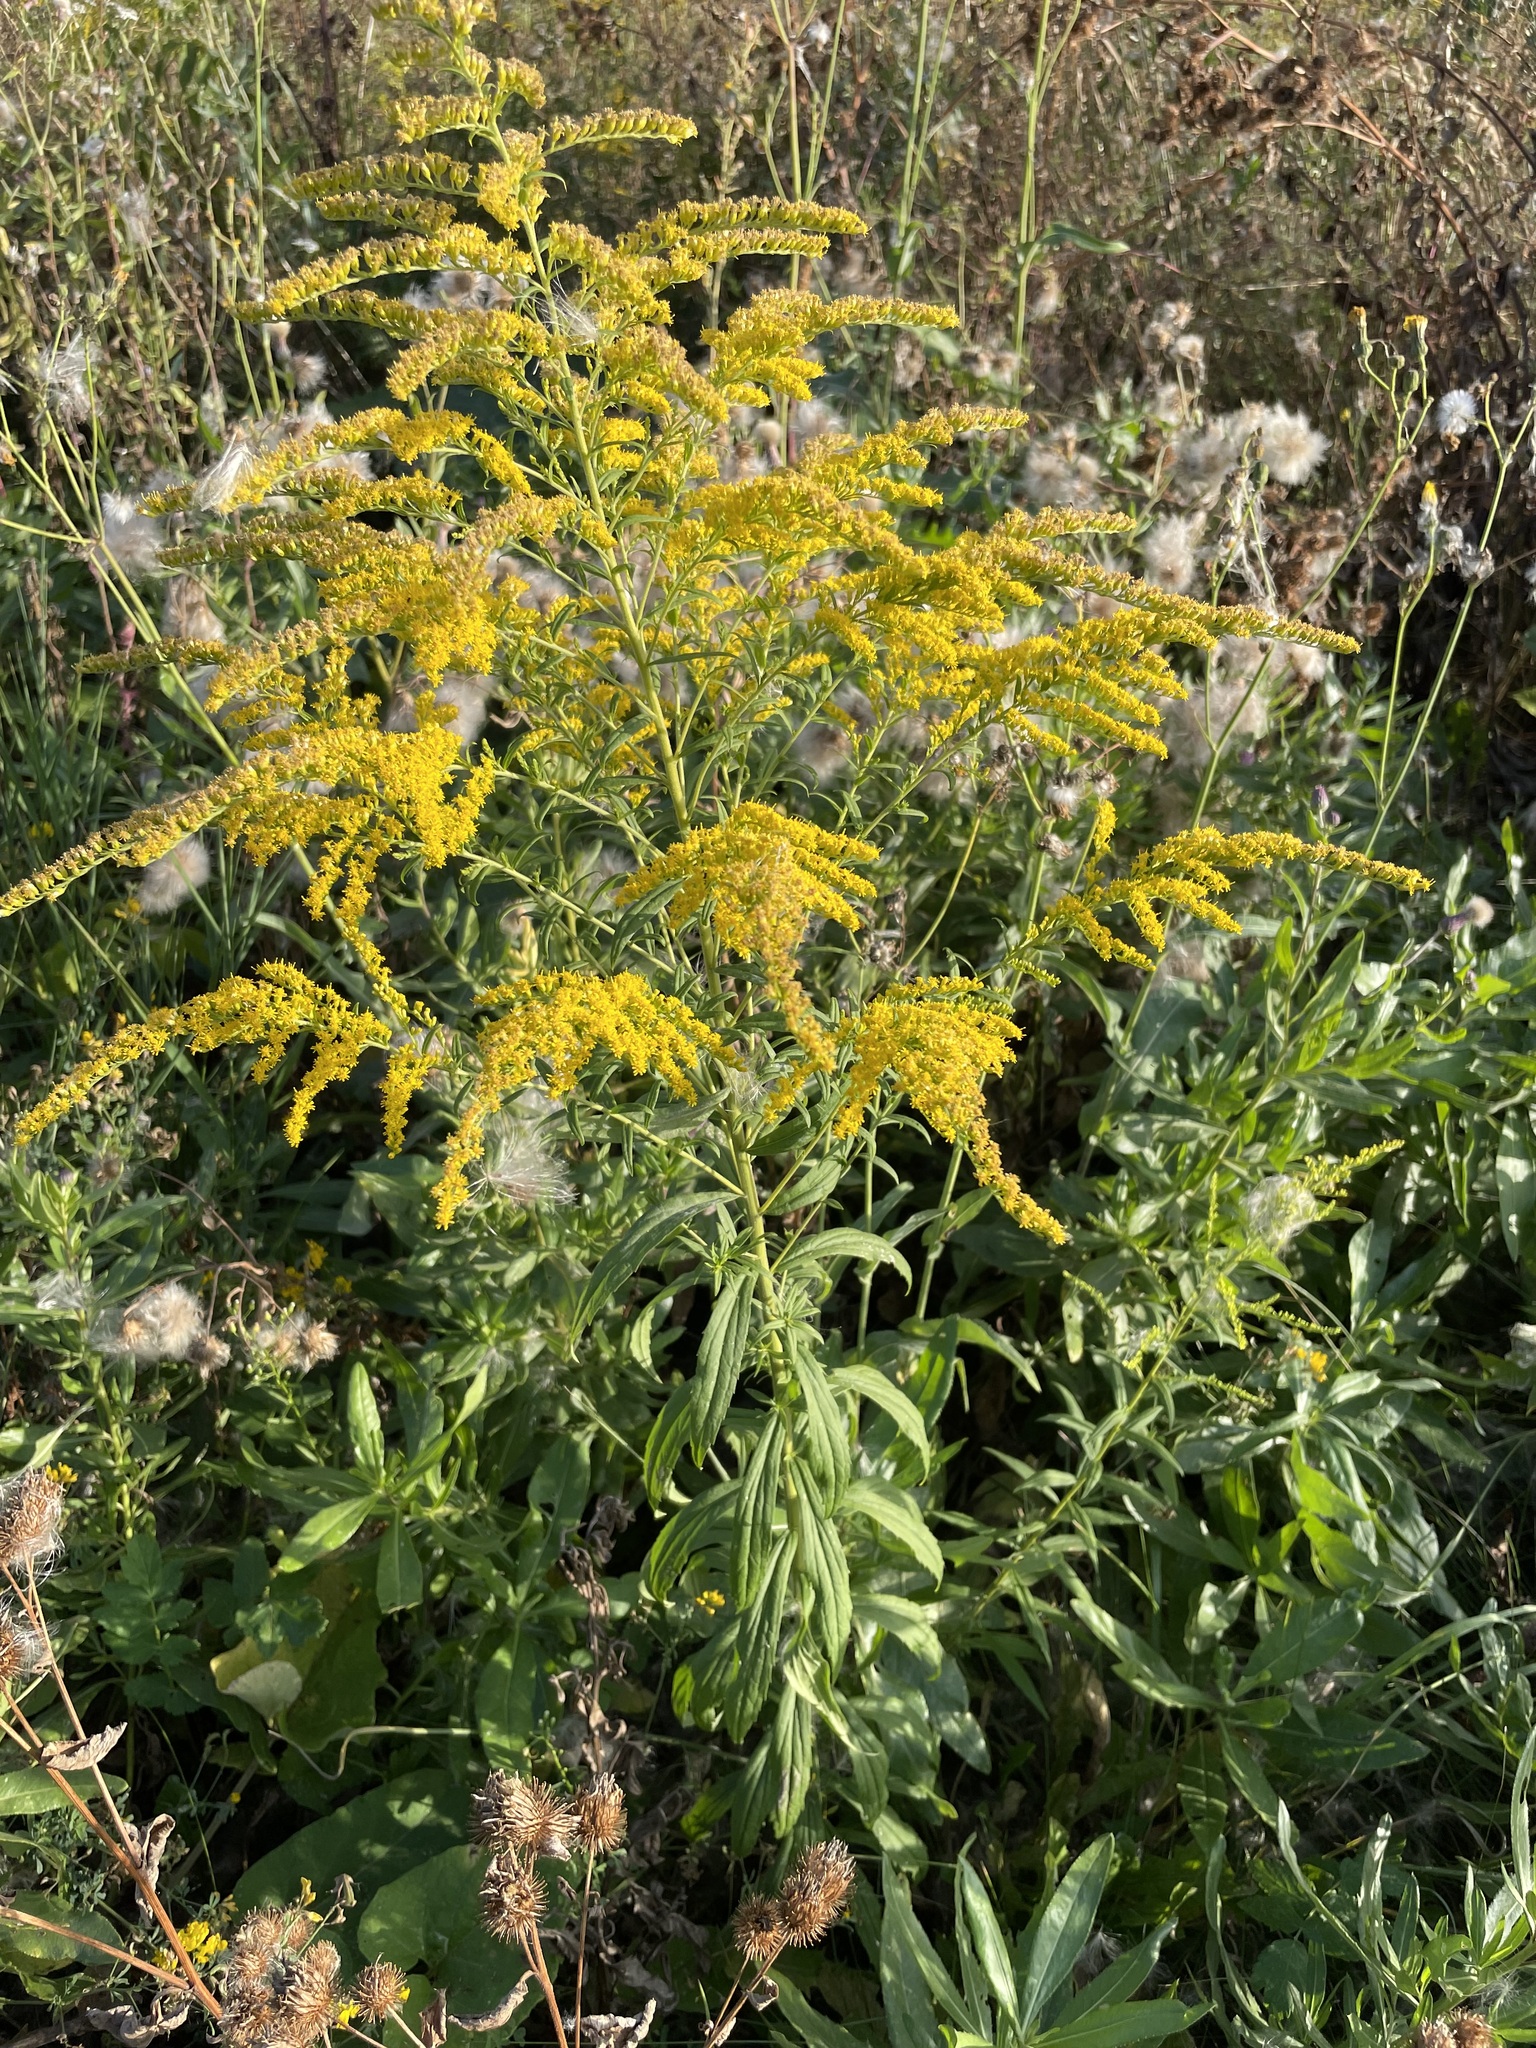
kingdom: Plantae
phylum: Tracheophyta
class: Magnoliopsida
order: Asterales
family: Asteraceae
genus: Solidago
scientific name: Solidago canadensis
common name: Canada goldenrod
